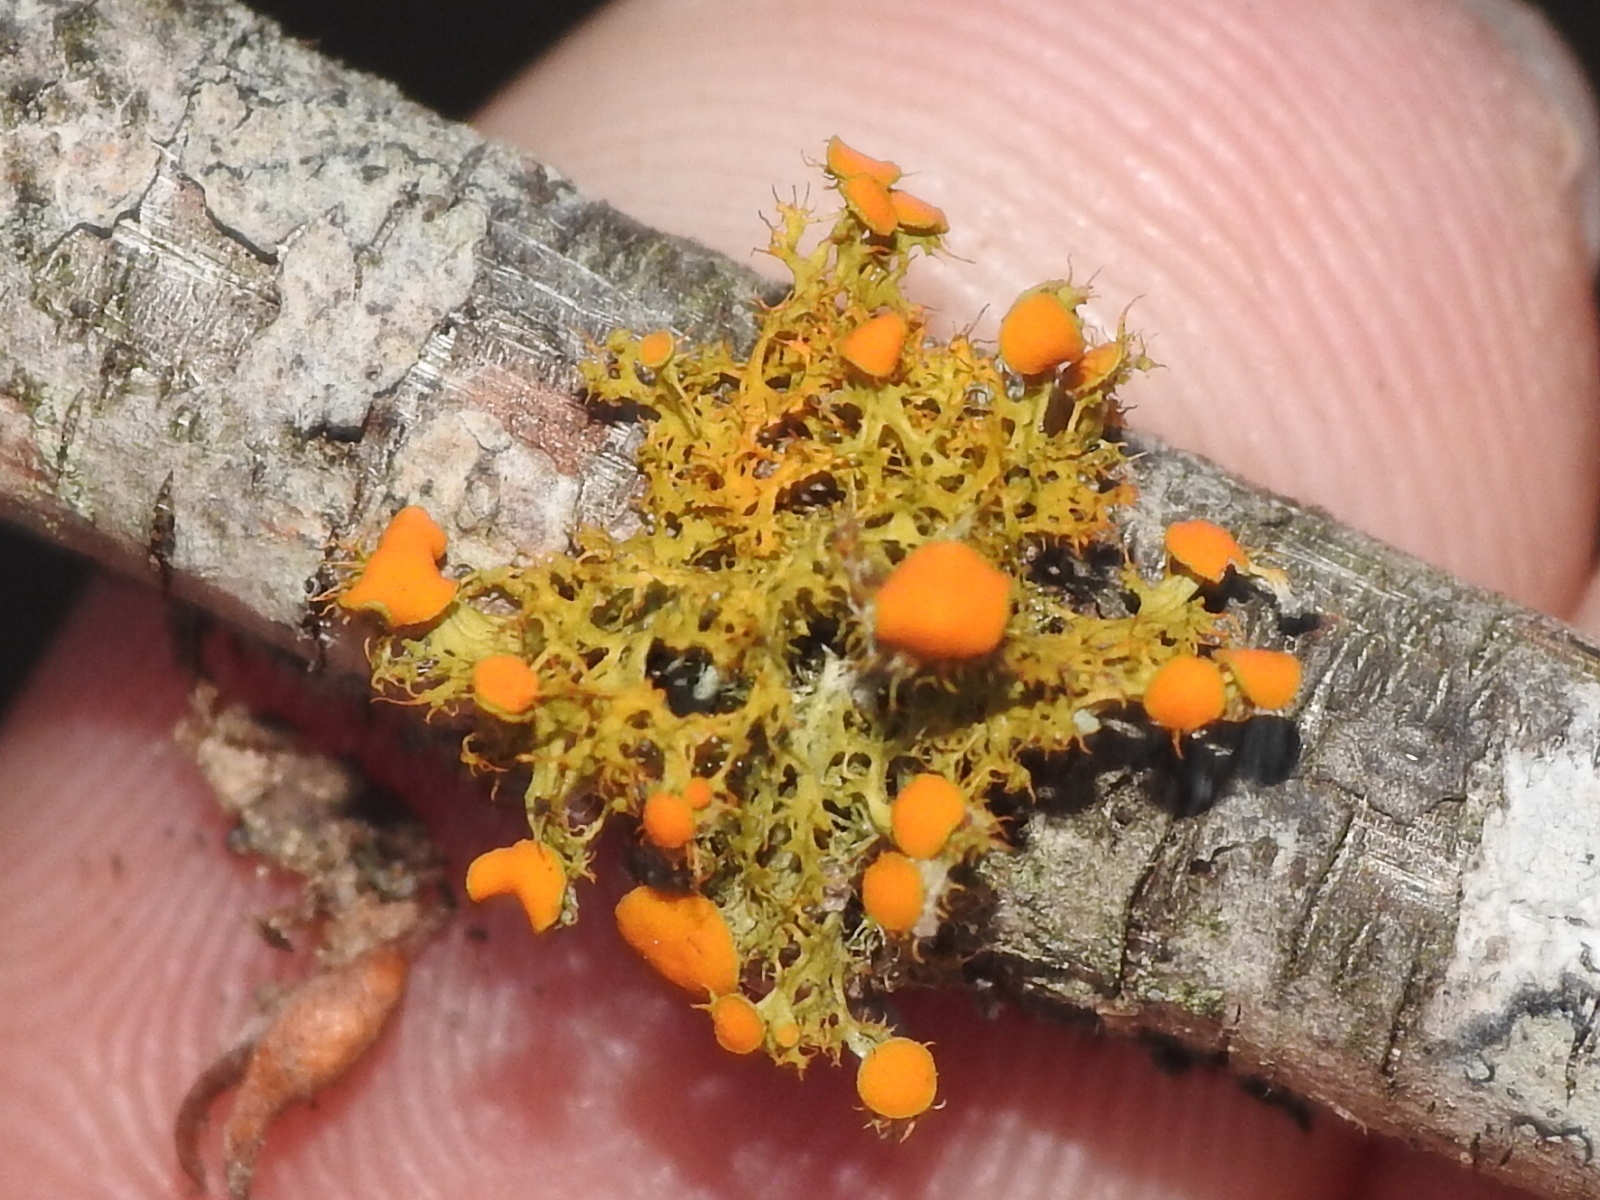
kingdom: Fungi
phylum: Ascomycota
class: Lecanoromycetes
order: Teloschistales
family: Teloschistaceae
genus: Niorma
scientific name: Niorma chrysophthalma
